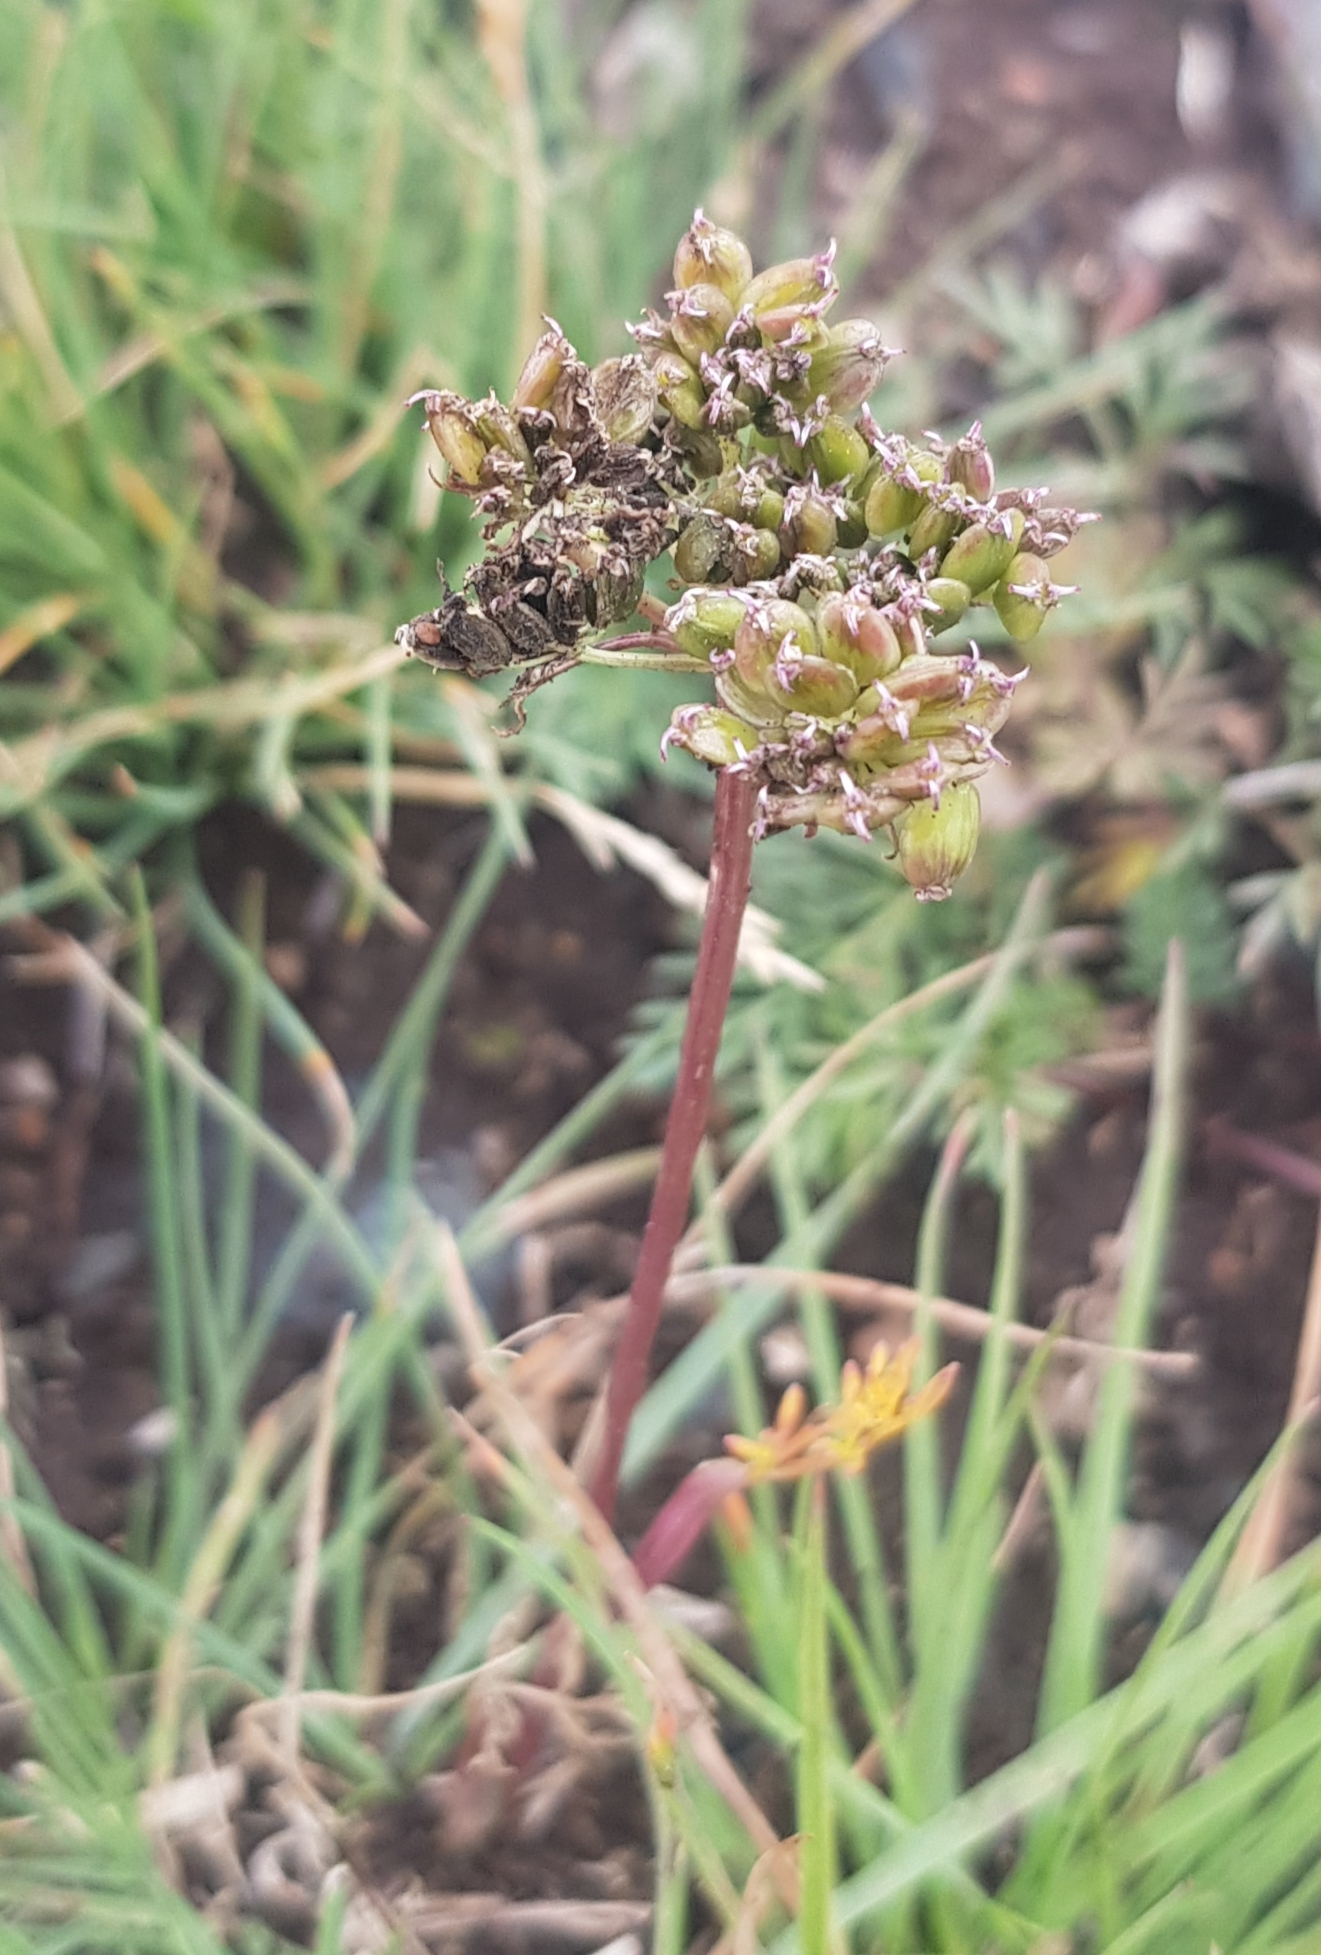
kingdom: Plantae
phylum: Tracheophyta
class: Magnoliopsida
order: Apiales
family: Apiaceae
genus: Pachypleurum
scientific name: Pachypleurum mutellinoides
